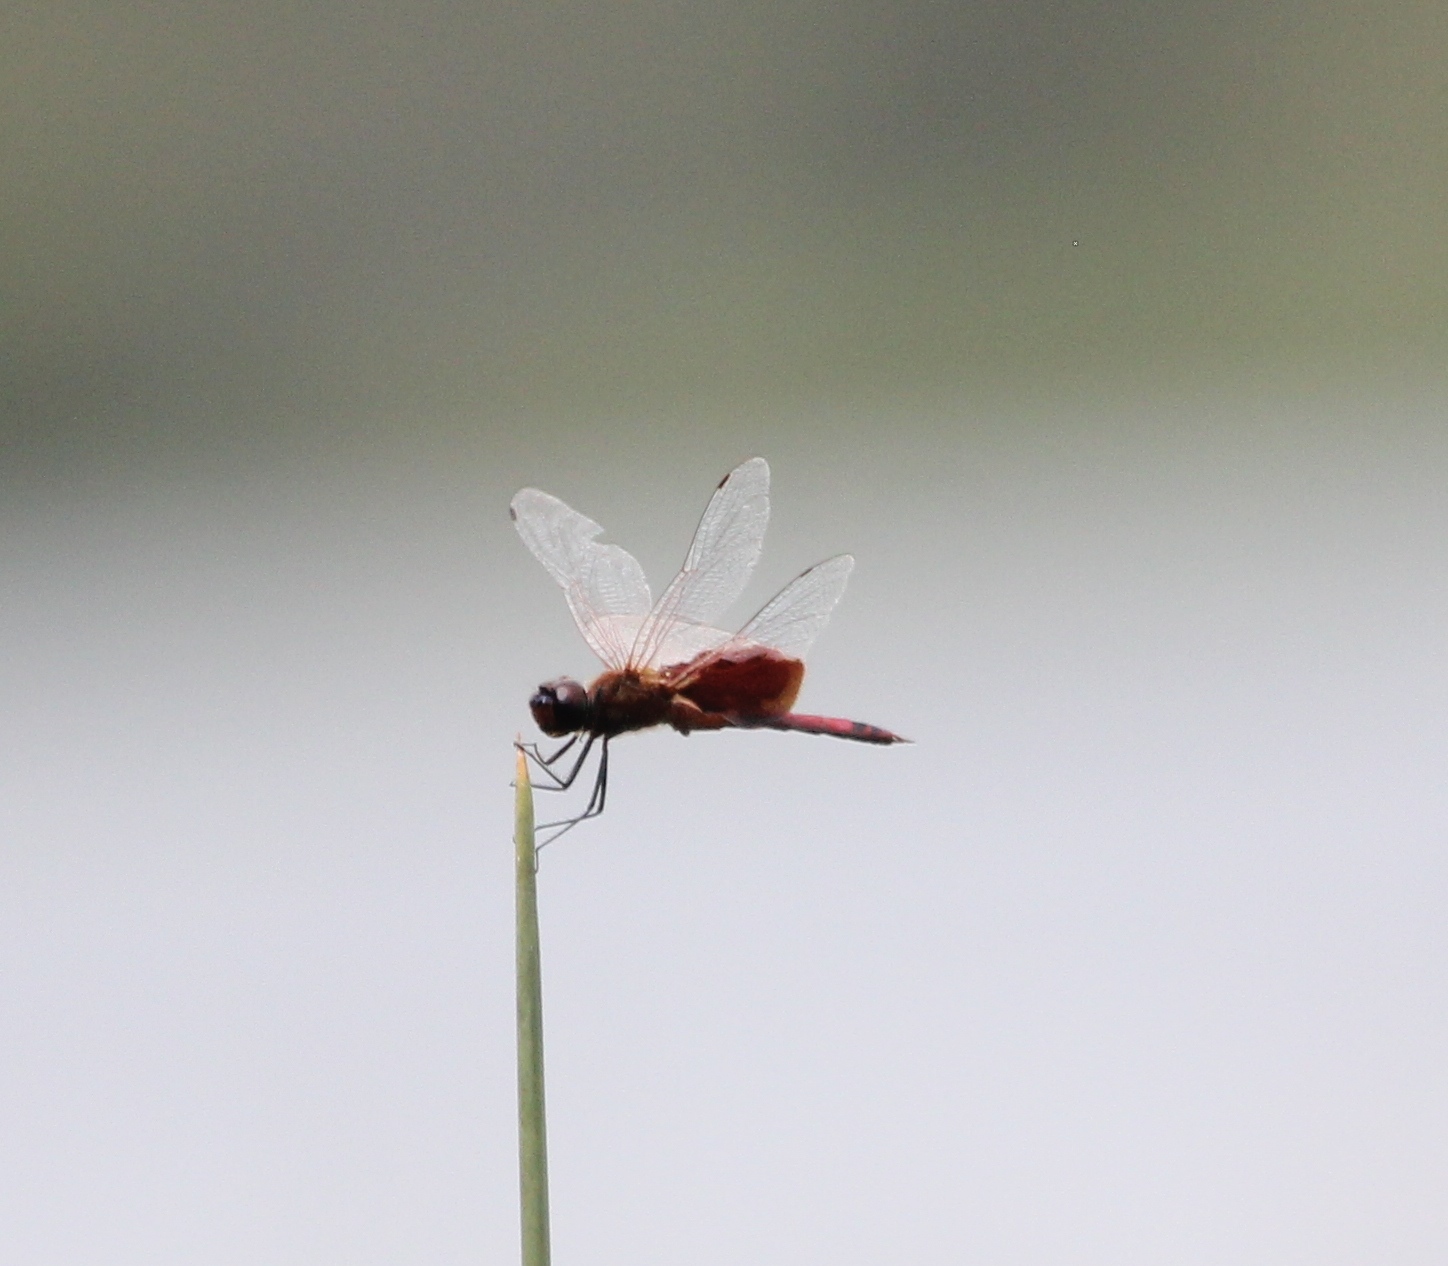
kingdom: Animalia
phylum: Arthropoda
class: Insecta
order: Odonata
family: Libellulidae
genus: Tramea
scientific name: Tramea carolina
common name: Carolina saddlebags
